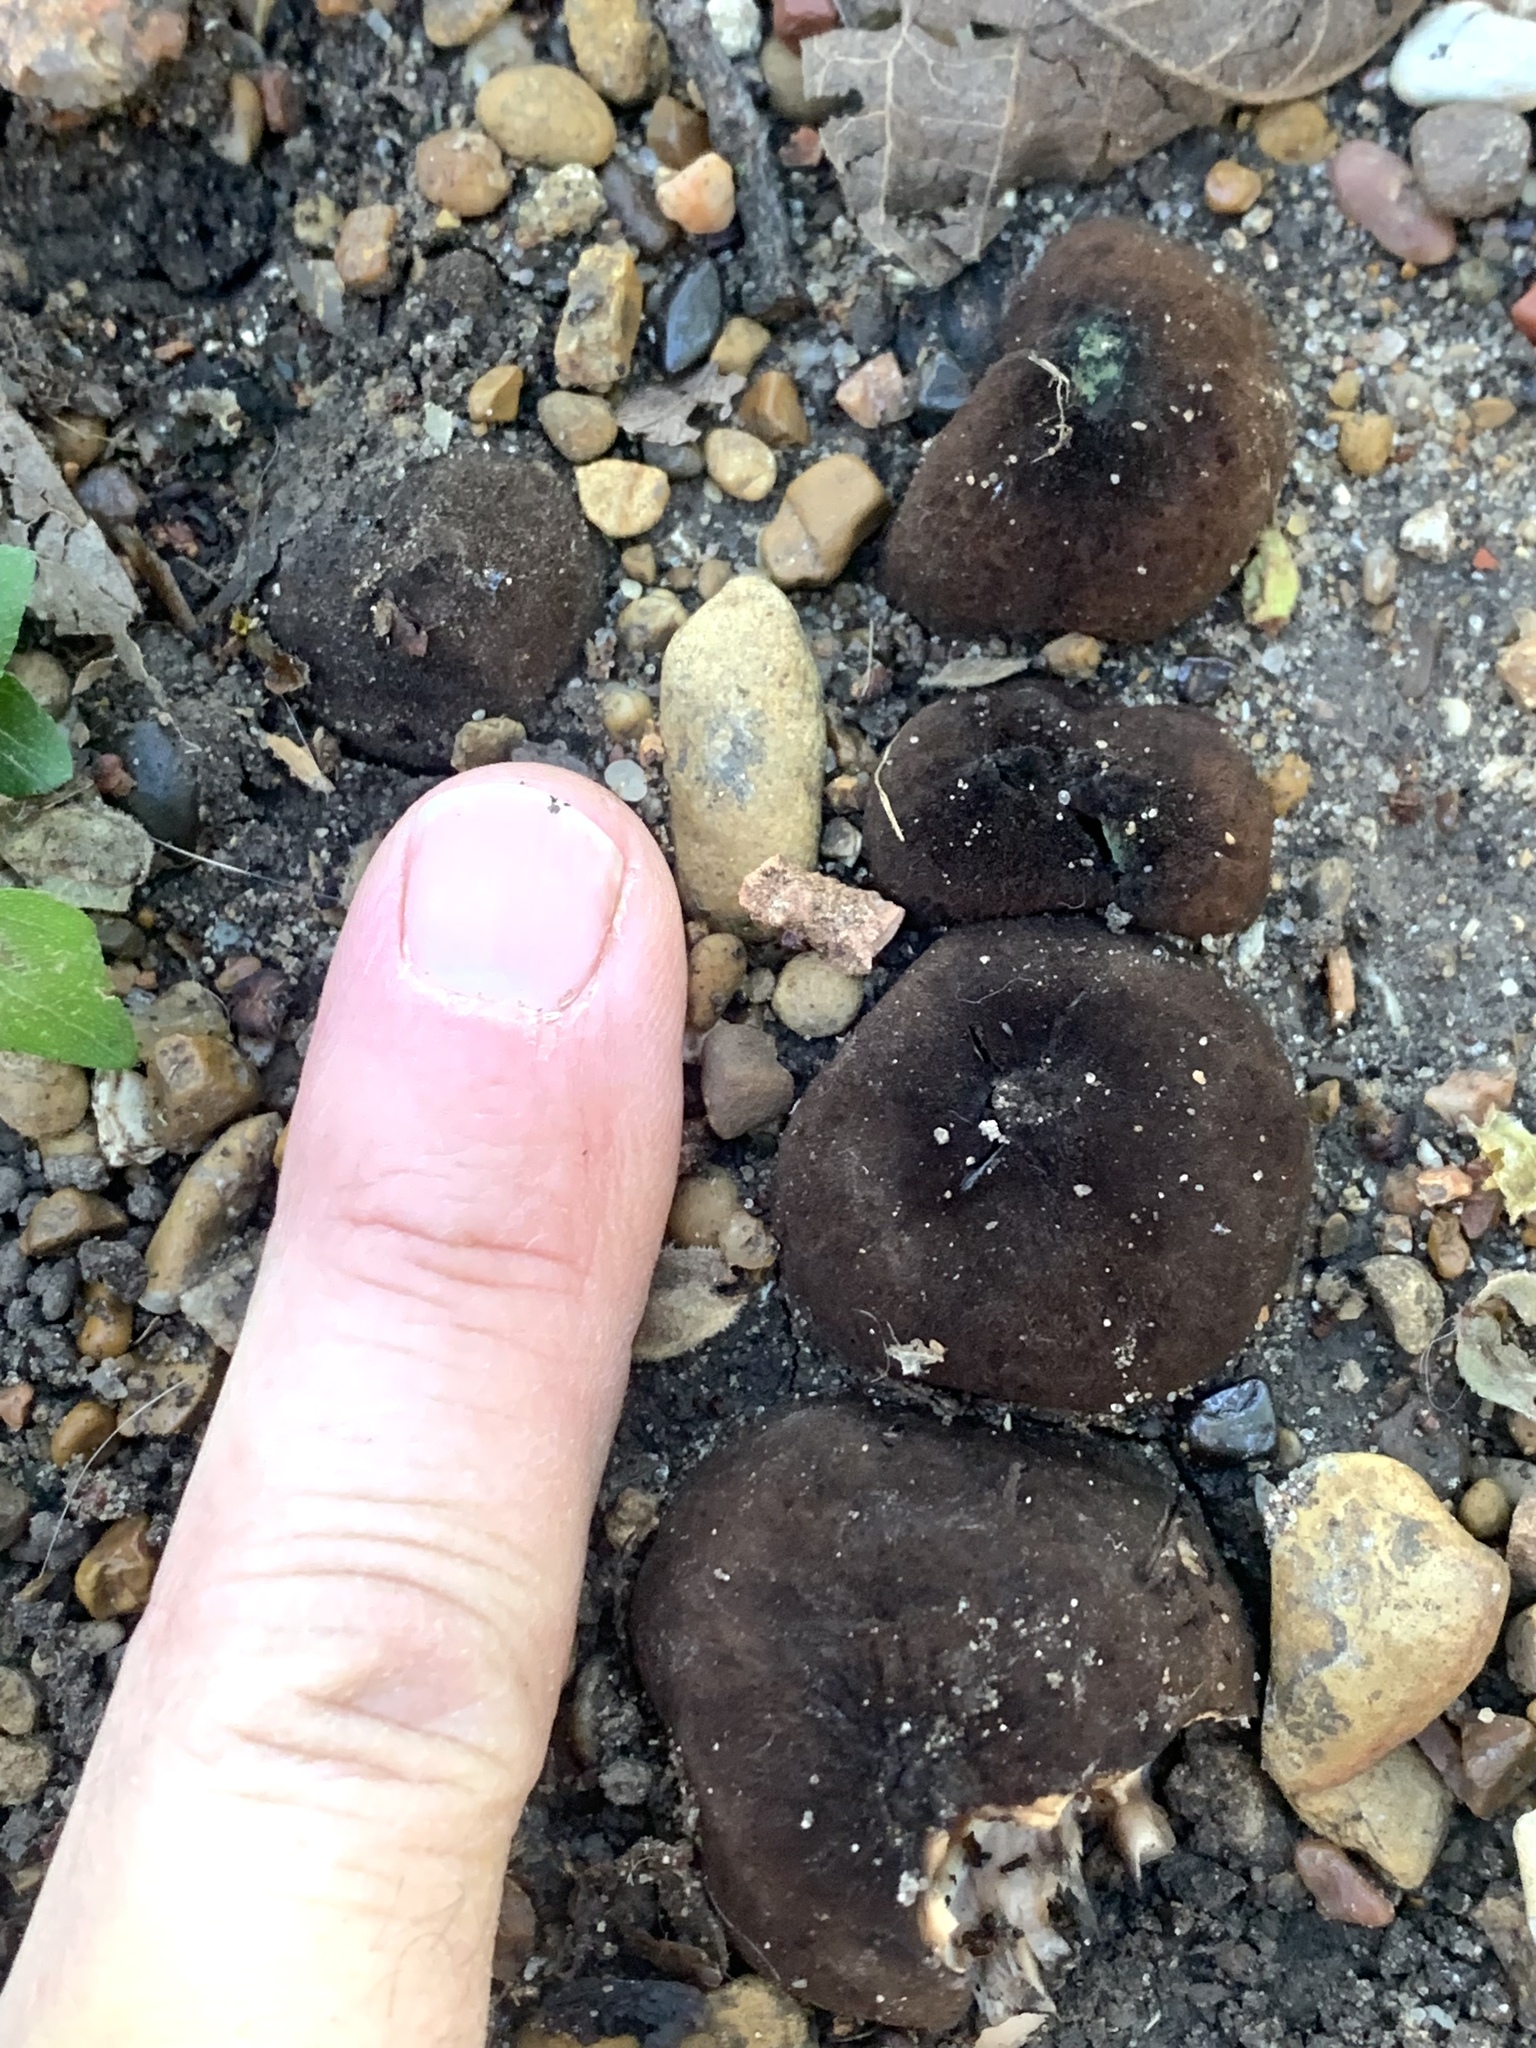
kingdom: Fungi
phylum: Ascomycota
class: Pezizomycetes
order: Pezizales
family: Chorioactidaceae
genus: Chorioactis
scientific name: Chorioactis geaster
